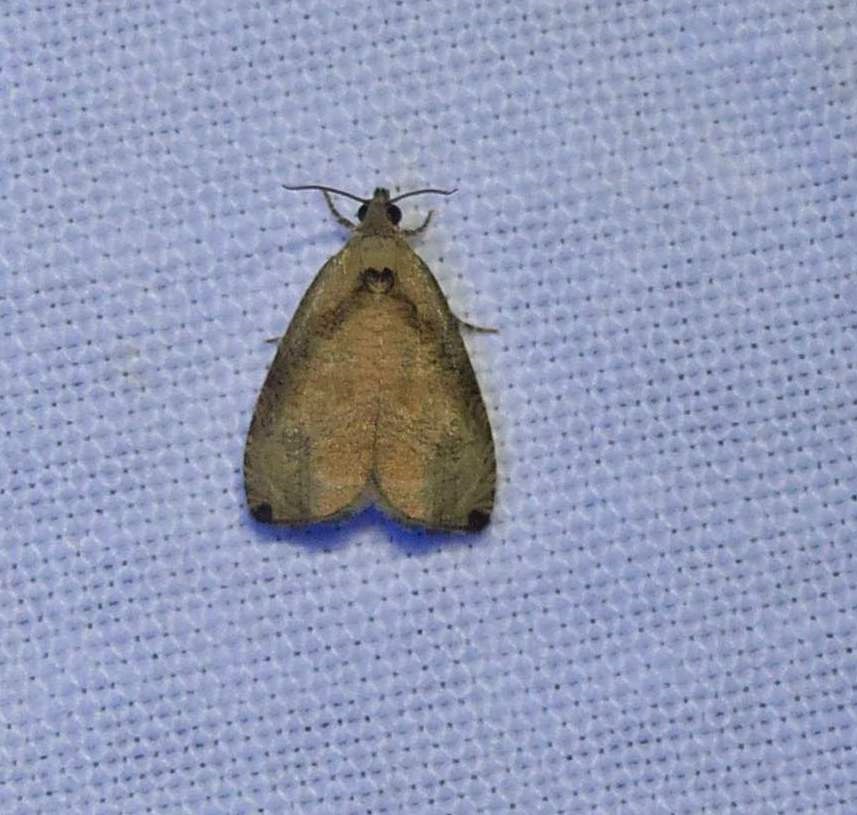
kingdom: Animalia
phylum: Arthropoda
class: Insecta
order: Lepidoptera
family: Tortricidae
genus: Olethreutes
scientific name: Olethreutes exoletum
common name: Wretched olethreutes moth
